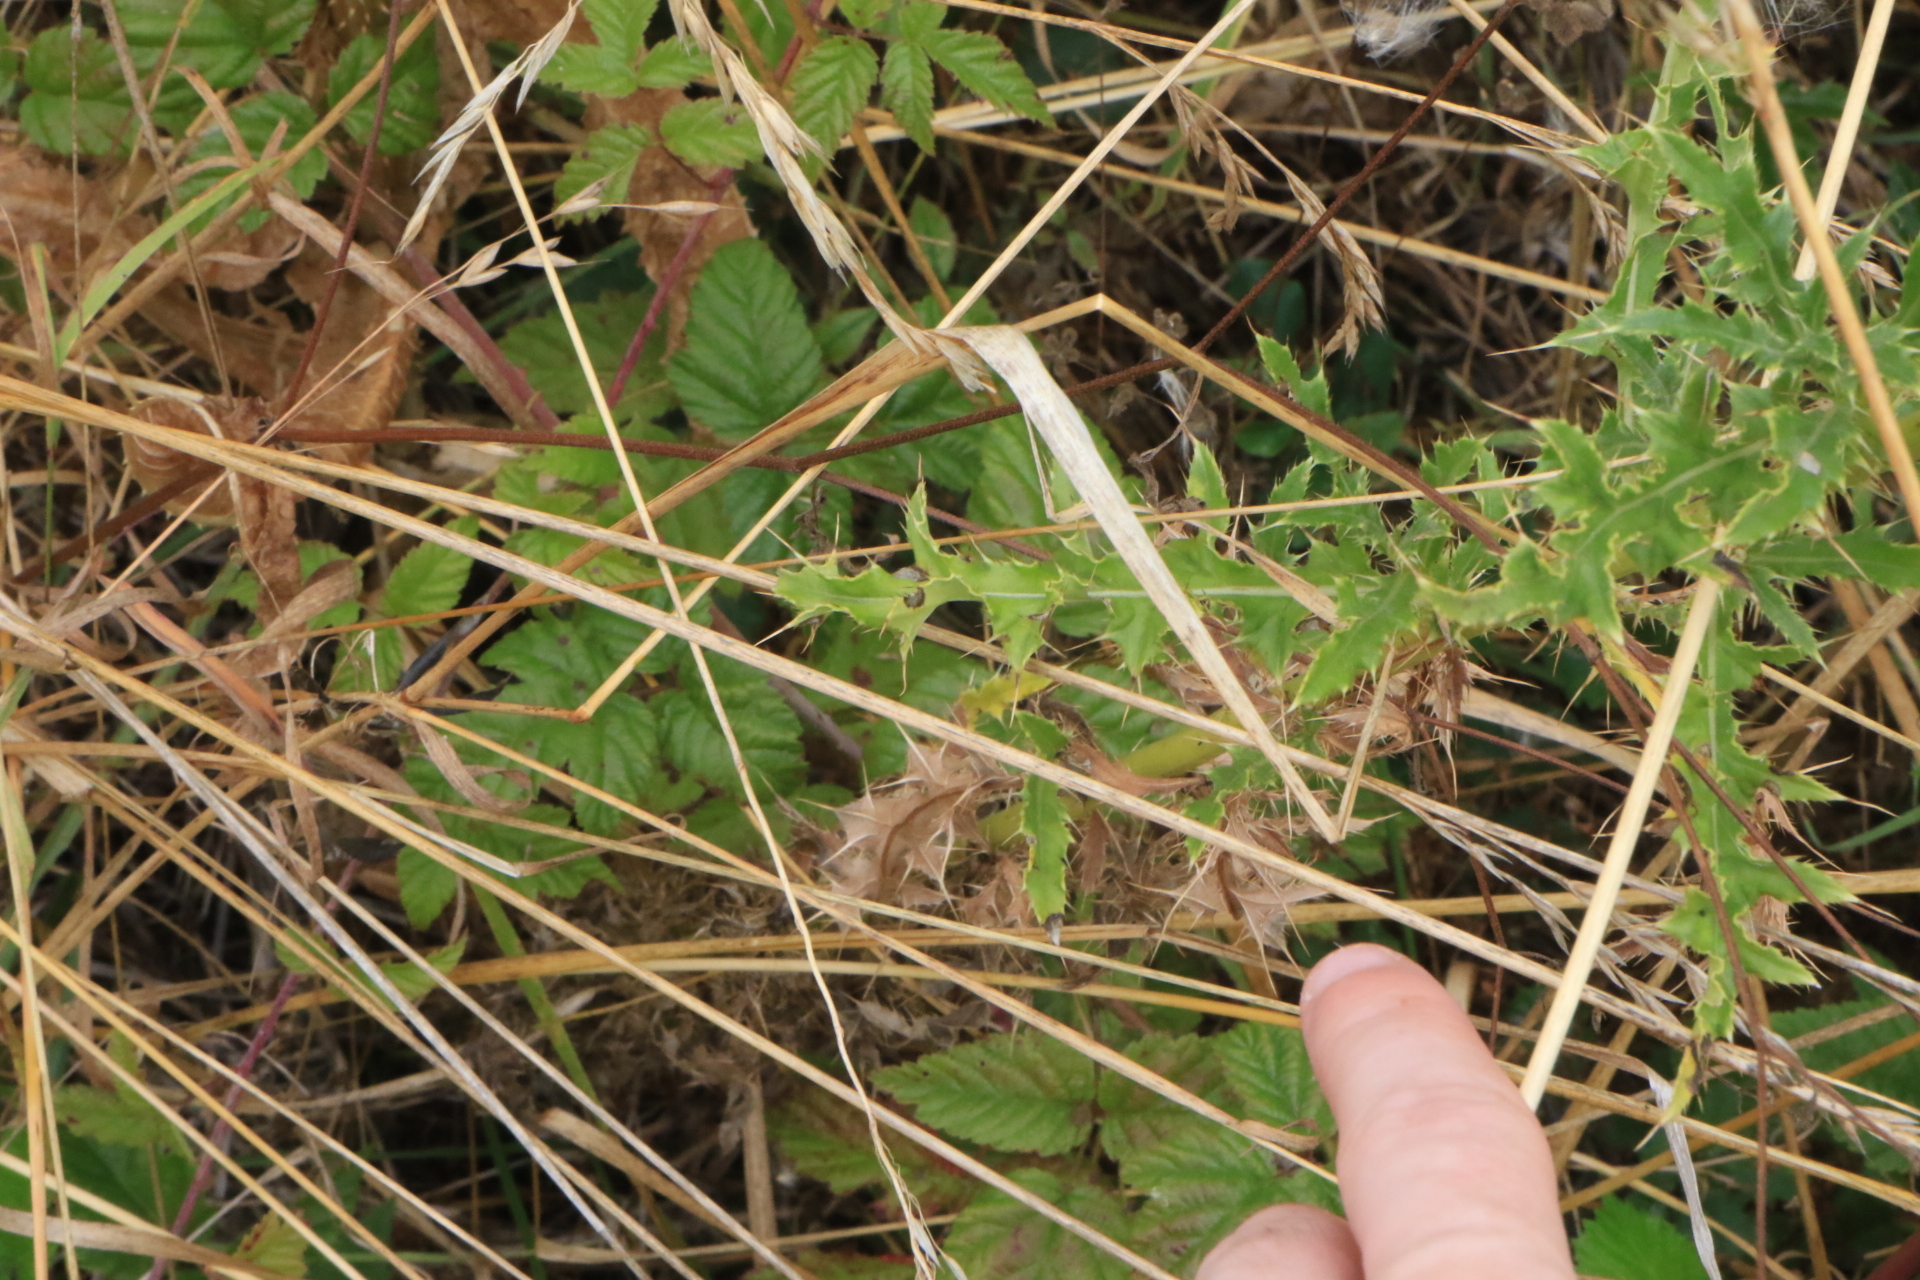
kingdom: Plantae
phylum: Tracheophyta
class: Magnoliopsida
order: Asterales
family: Asteraceae
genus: Cirsium
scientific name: Cirsium arvense
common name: Creeping thistle
